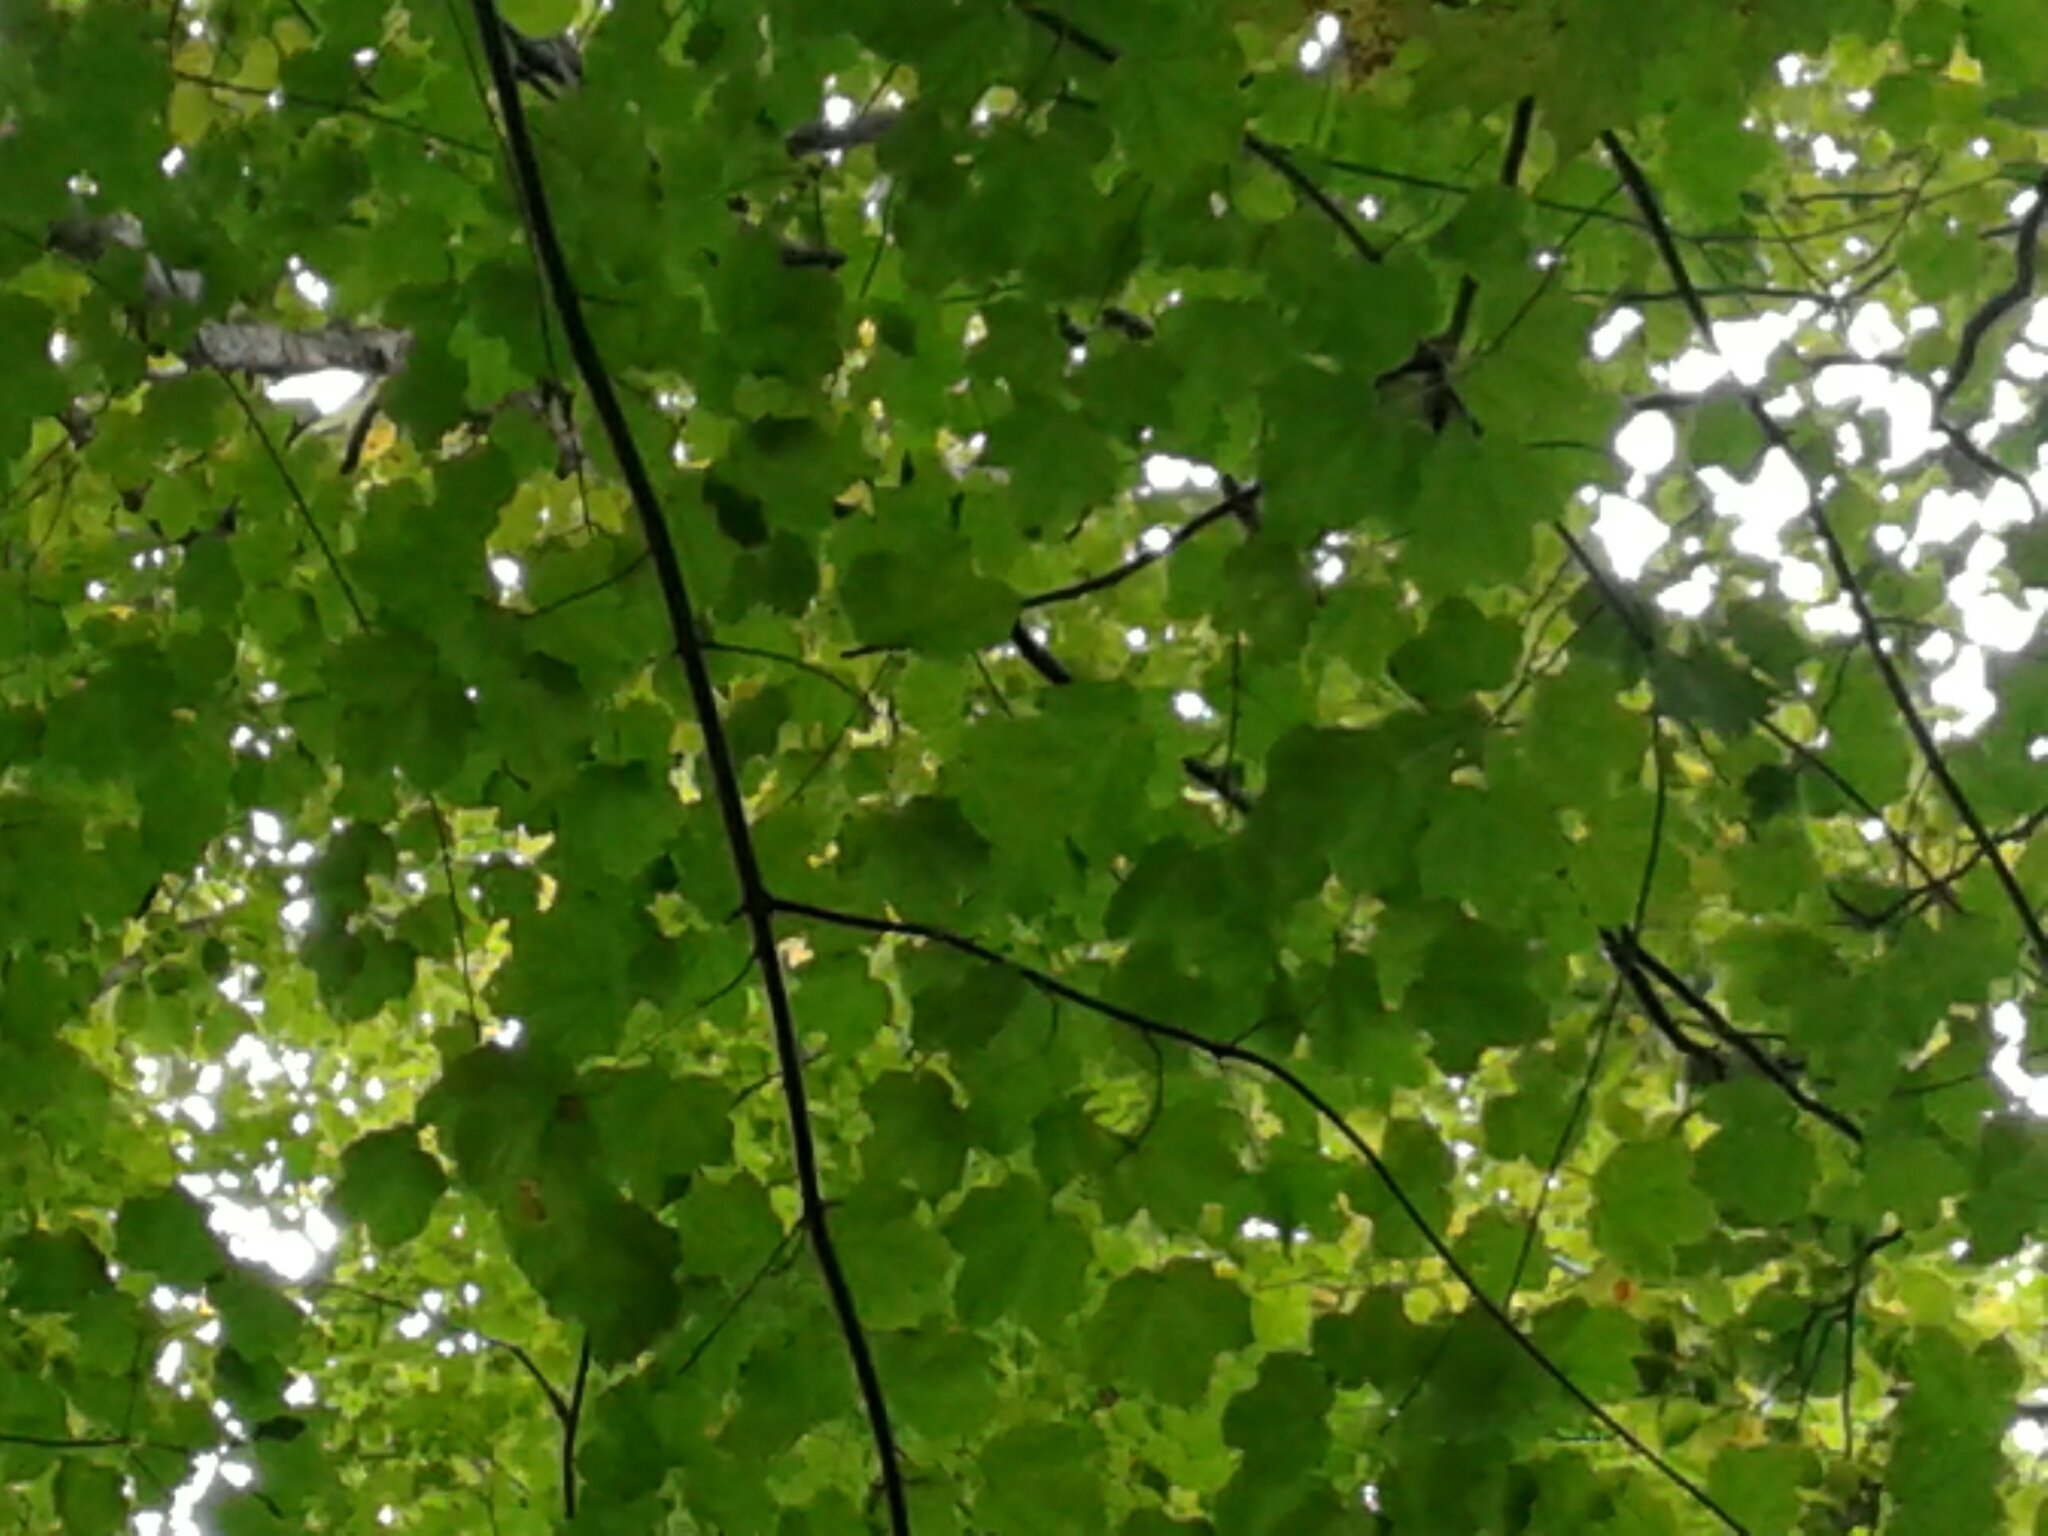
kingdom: Plantae
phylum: Tracheophyta
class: Magnoliopsida
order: Sapindales
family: Sapindaceae
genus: Acer
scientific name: Acer nigrum
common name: Black maple
